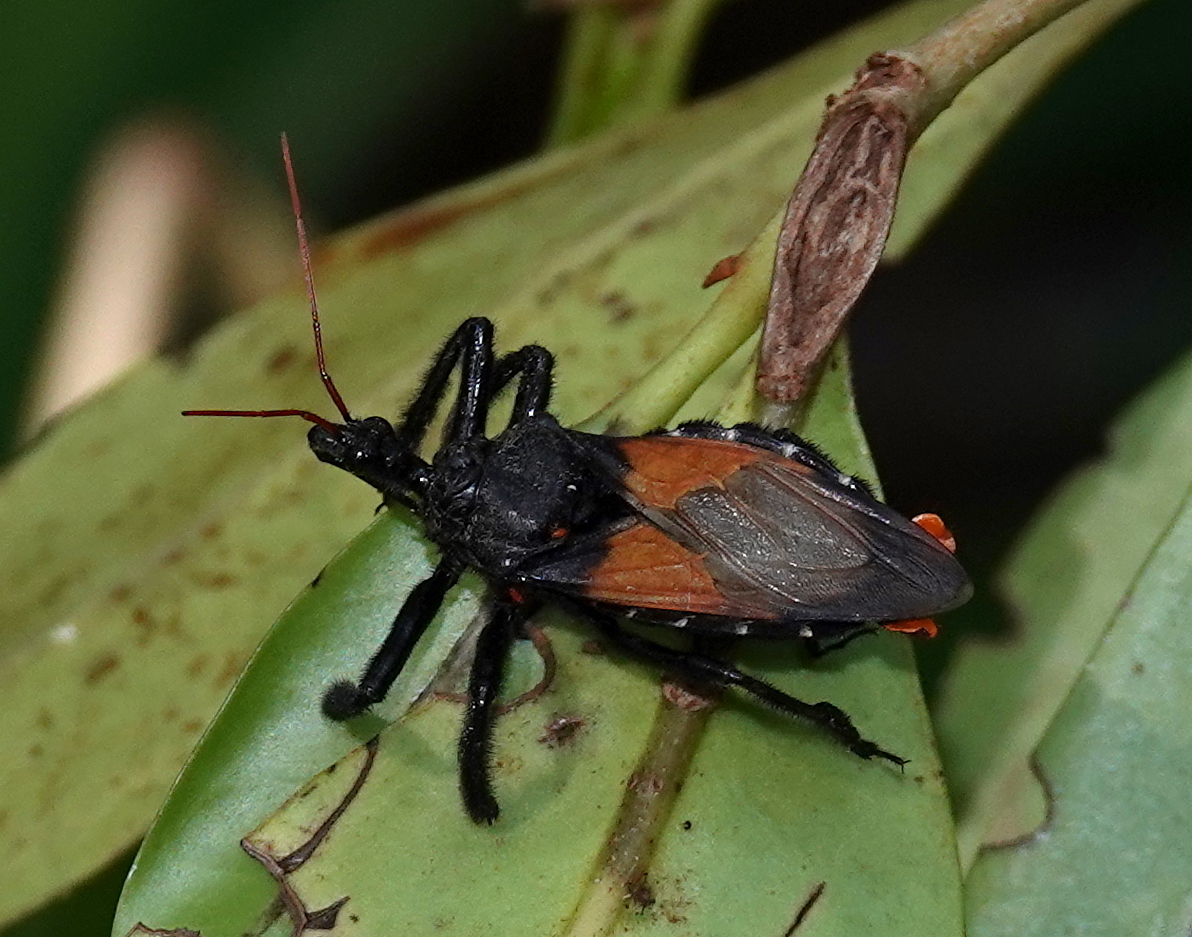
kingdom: Animalia
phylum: Arthropoda
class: Insecta
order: Hemiptera
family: Reduviidae
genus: Apiomerus
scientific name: Apiomerus gallegoi
